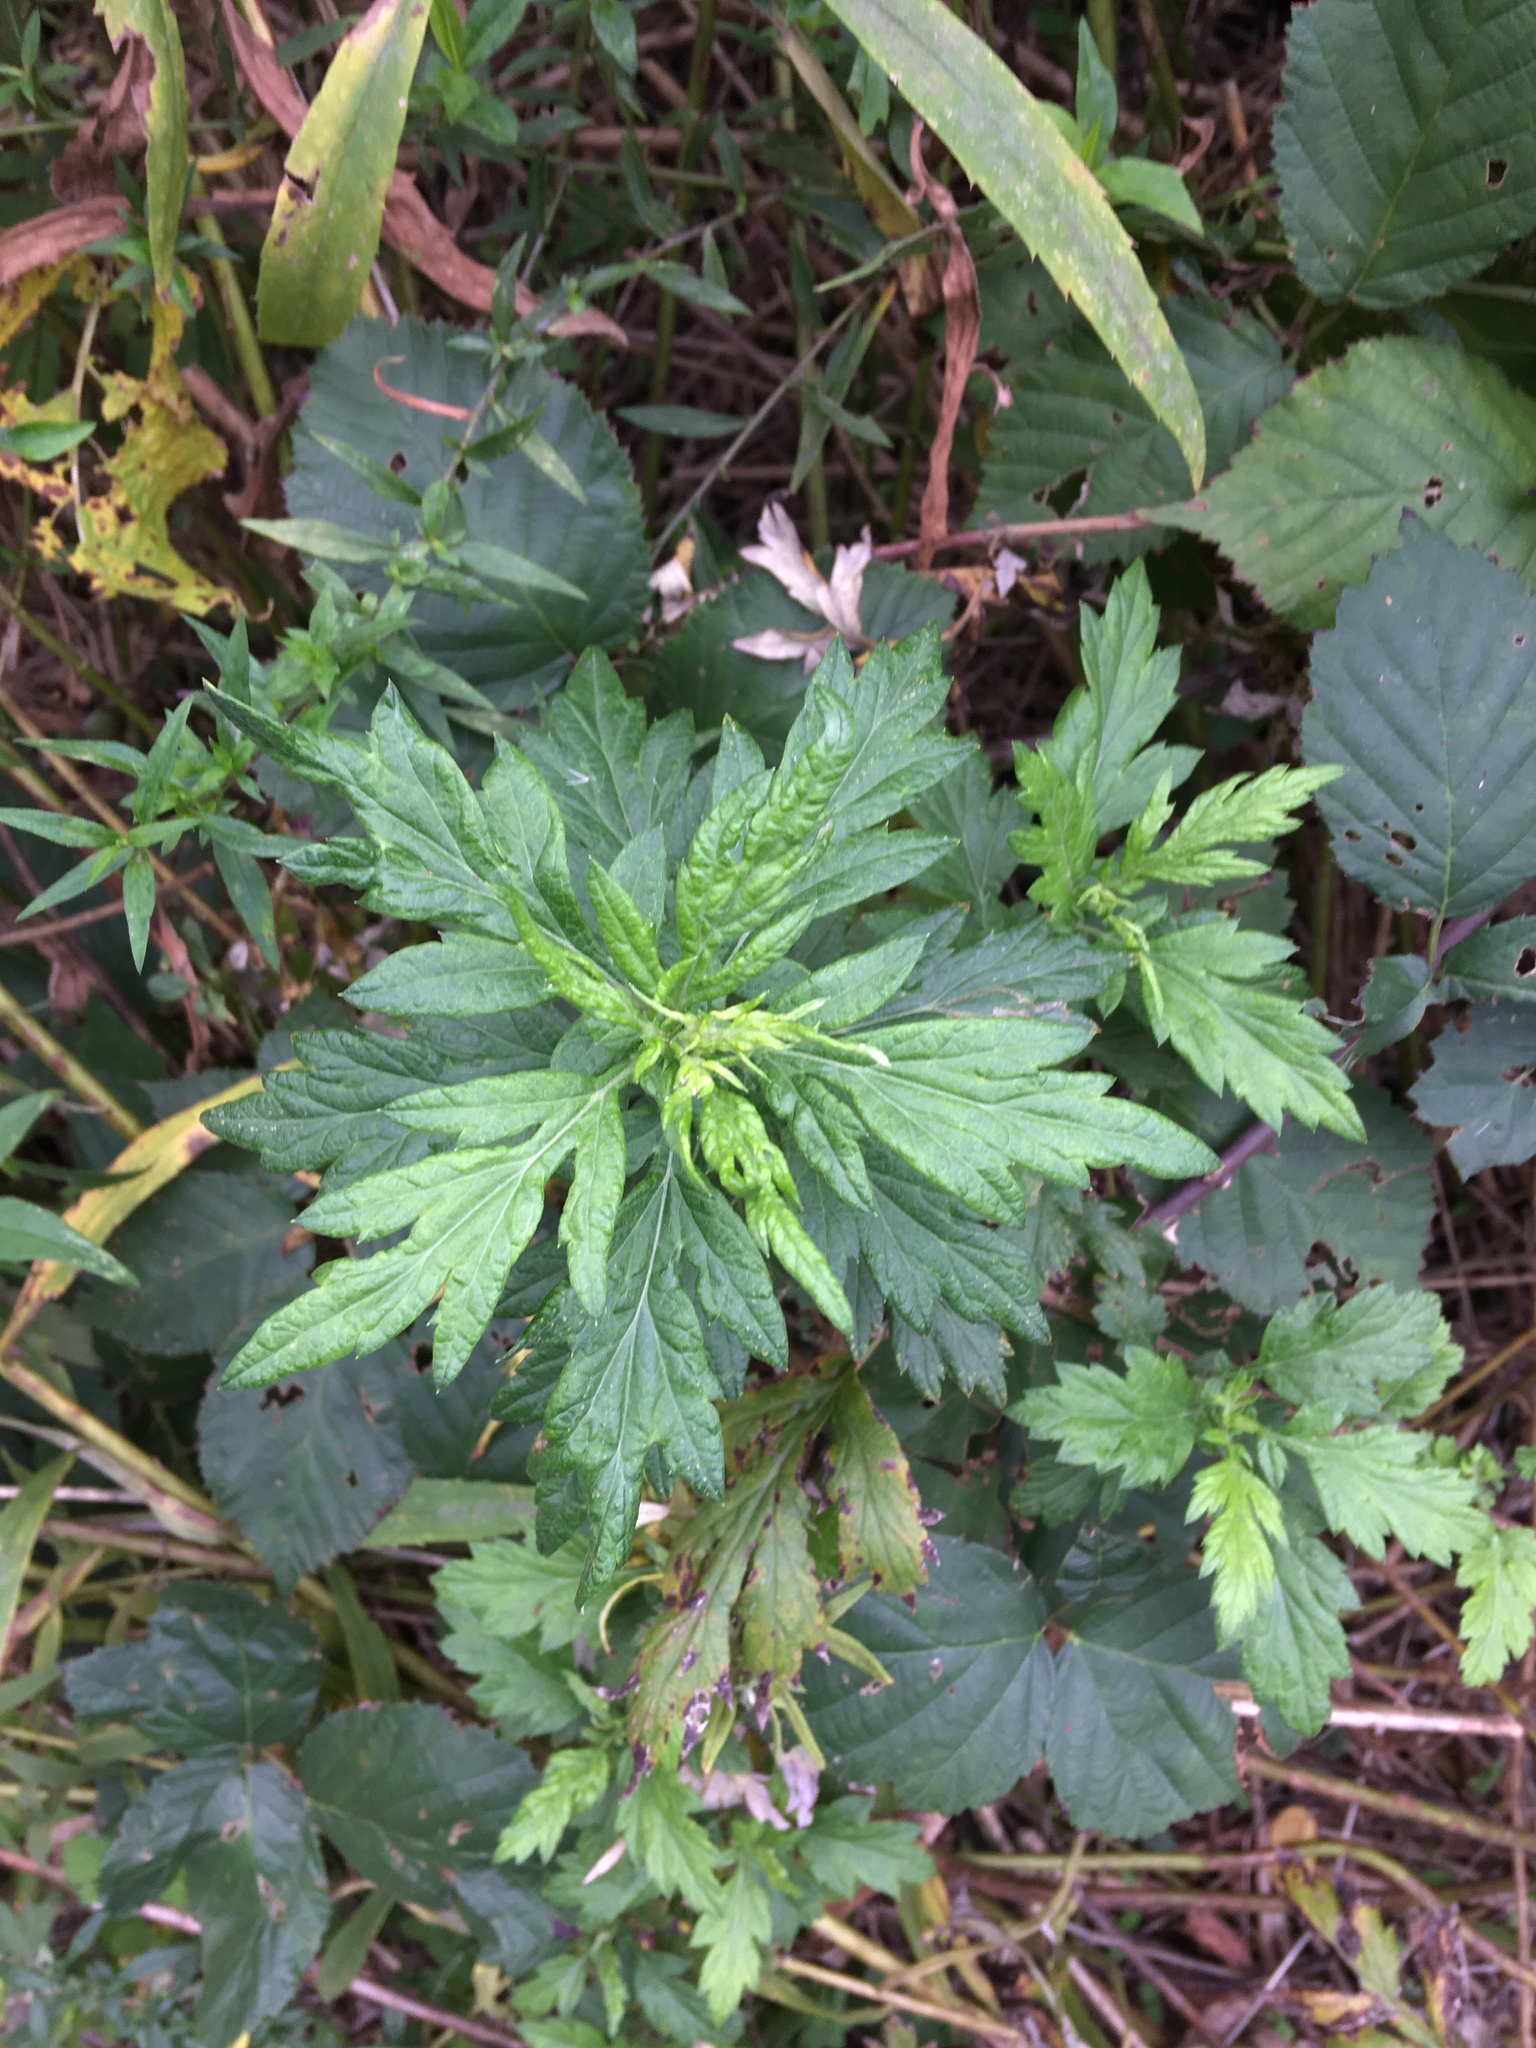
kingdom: Plantae
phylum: Tracheophyta
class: Magnoliopsida
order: Asterales
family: Asteraceae
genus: Artemisia
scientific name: Artemisia vulgaris
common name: Mugwort
